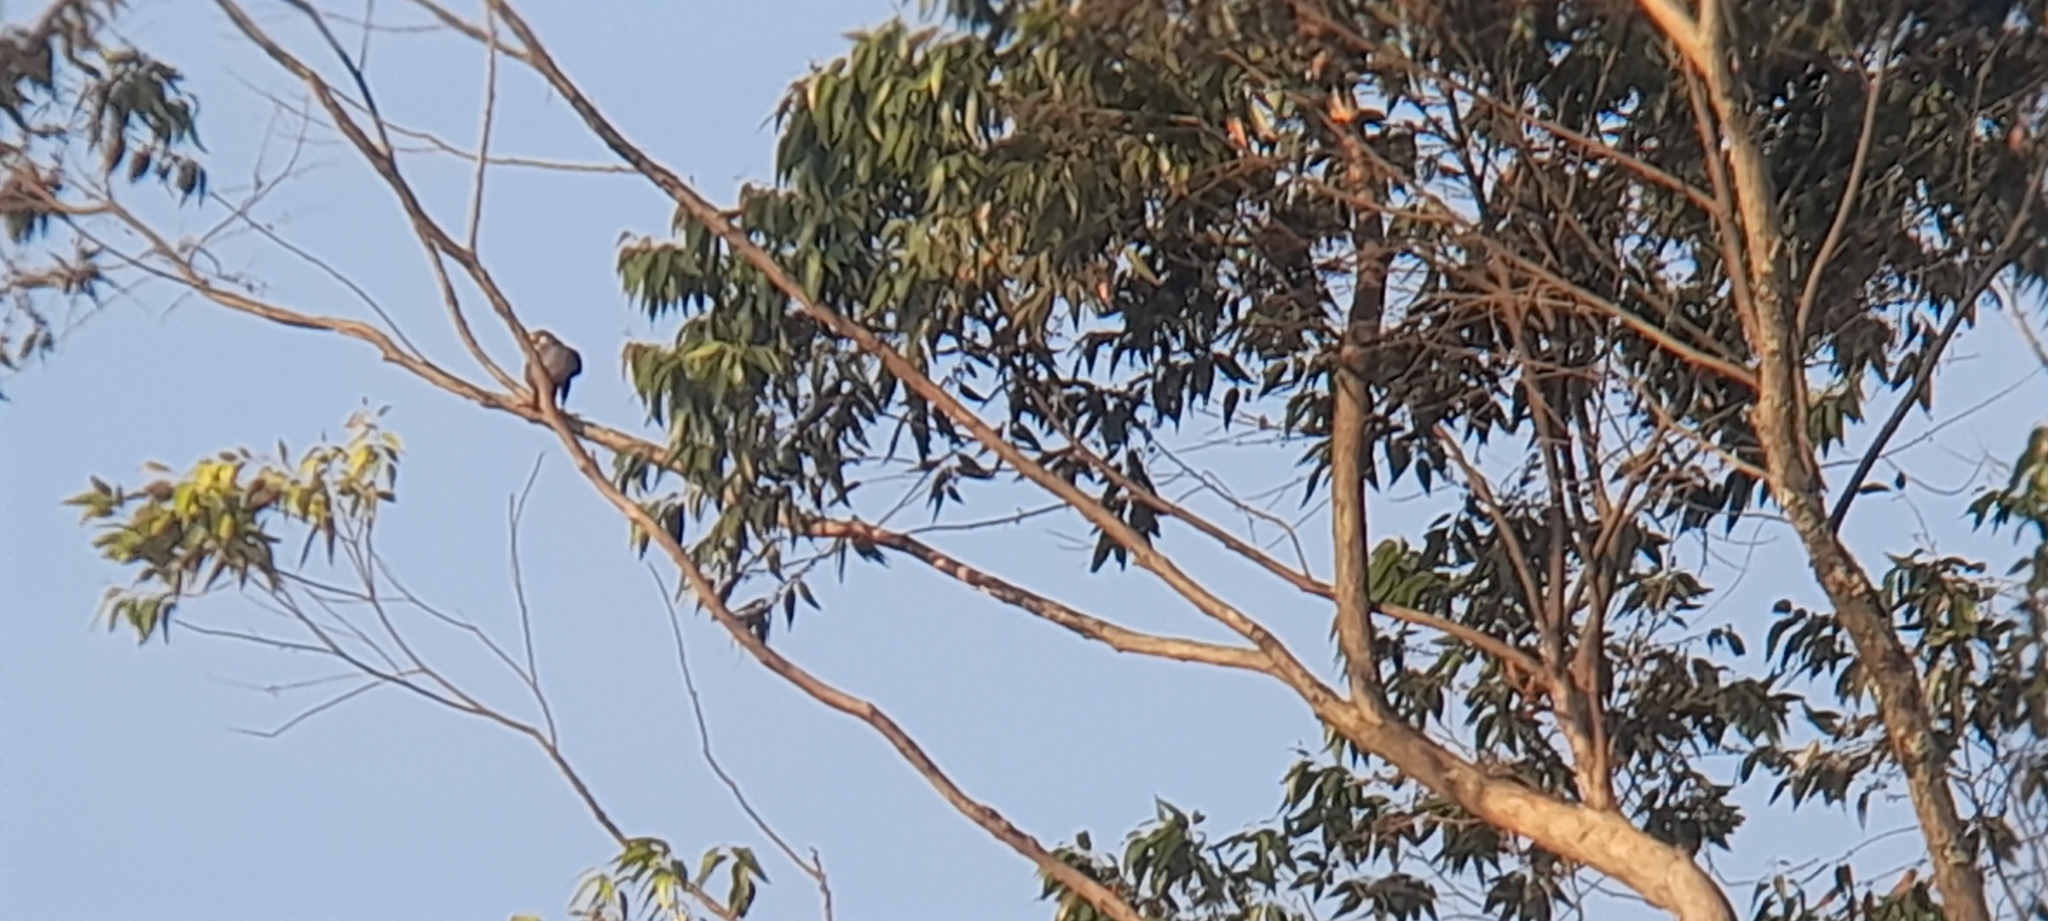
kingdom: Animalia
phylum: Chordata
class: Aves
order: Falconiformes
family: Falconidae
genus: Falco
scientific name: Falco peregrinus
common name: Peregrine falcon
